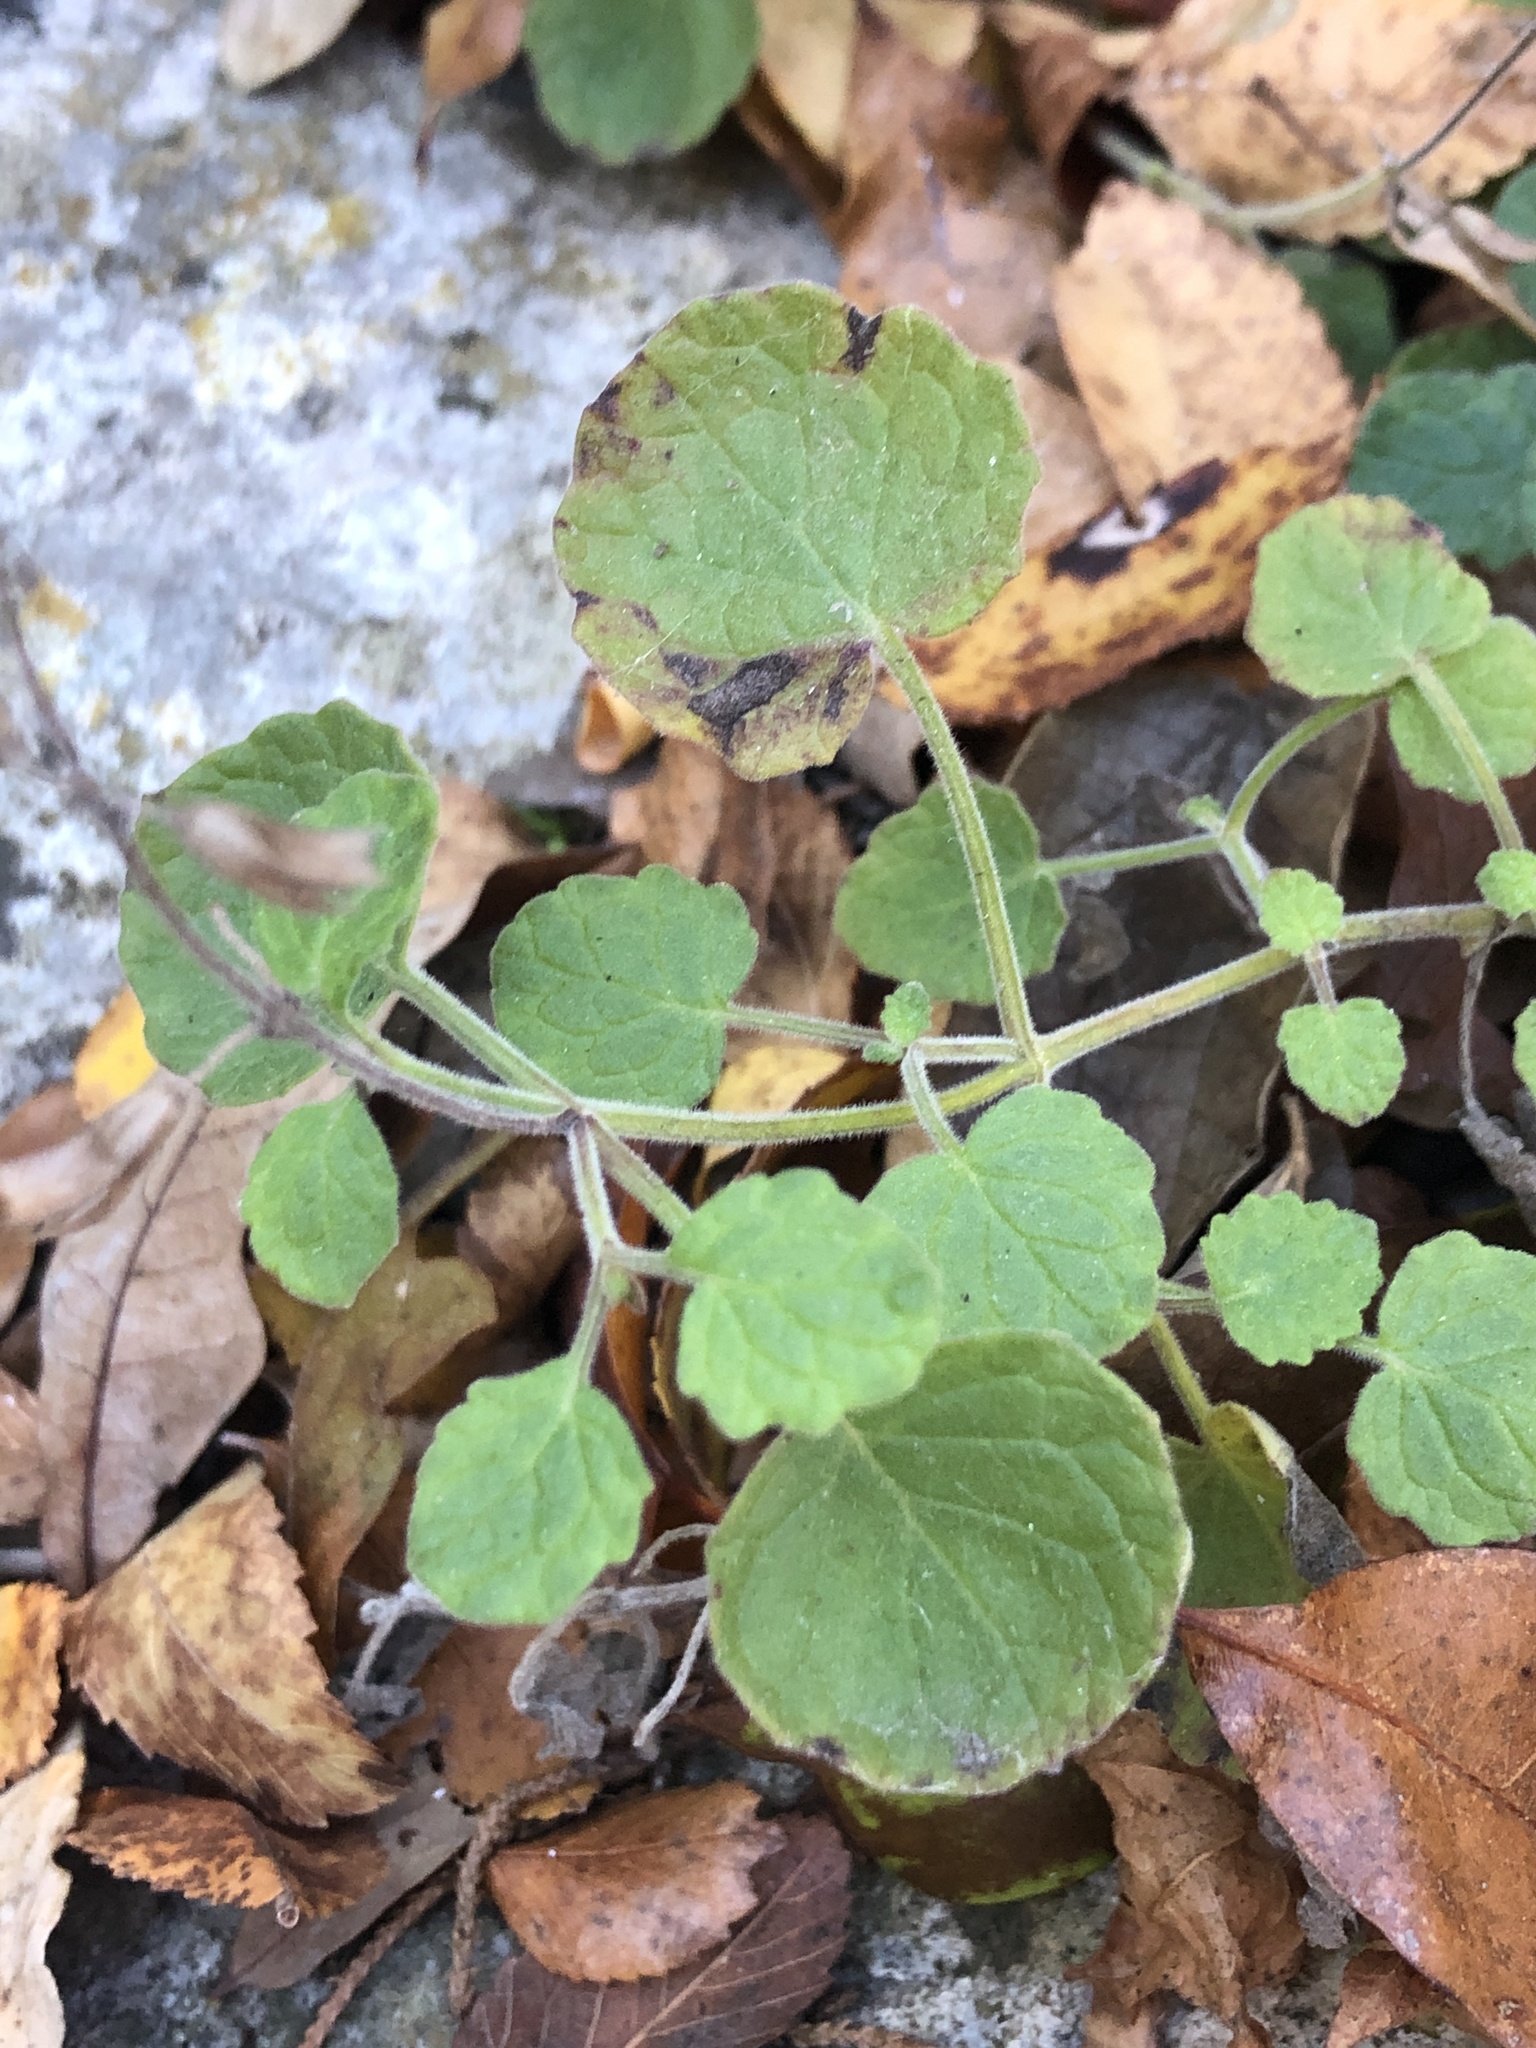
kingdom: Plantae
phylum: Tracheophyta
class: Magnoliopsida
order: Lamiales
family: Lamiaceae
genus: Salvia
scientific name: Salvia roemeriana
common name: Cedar sage
